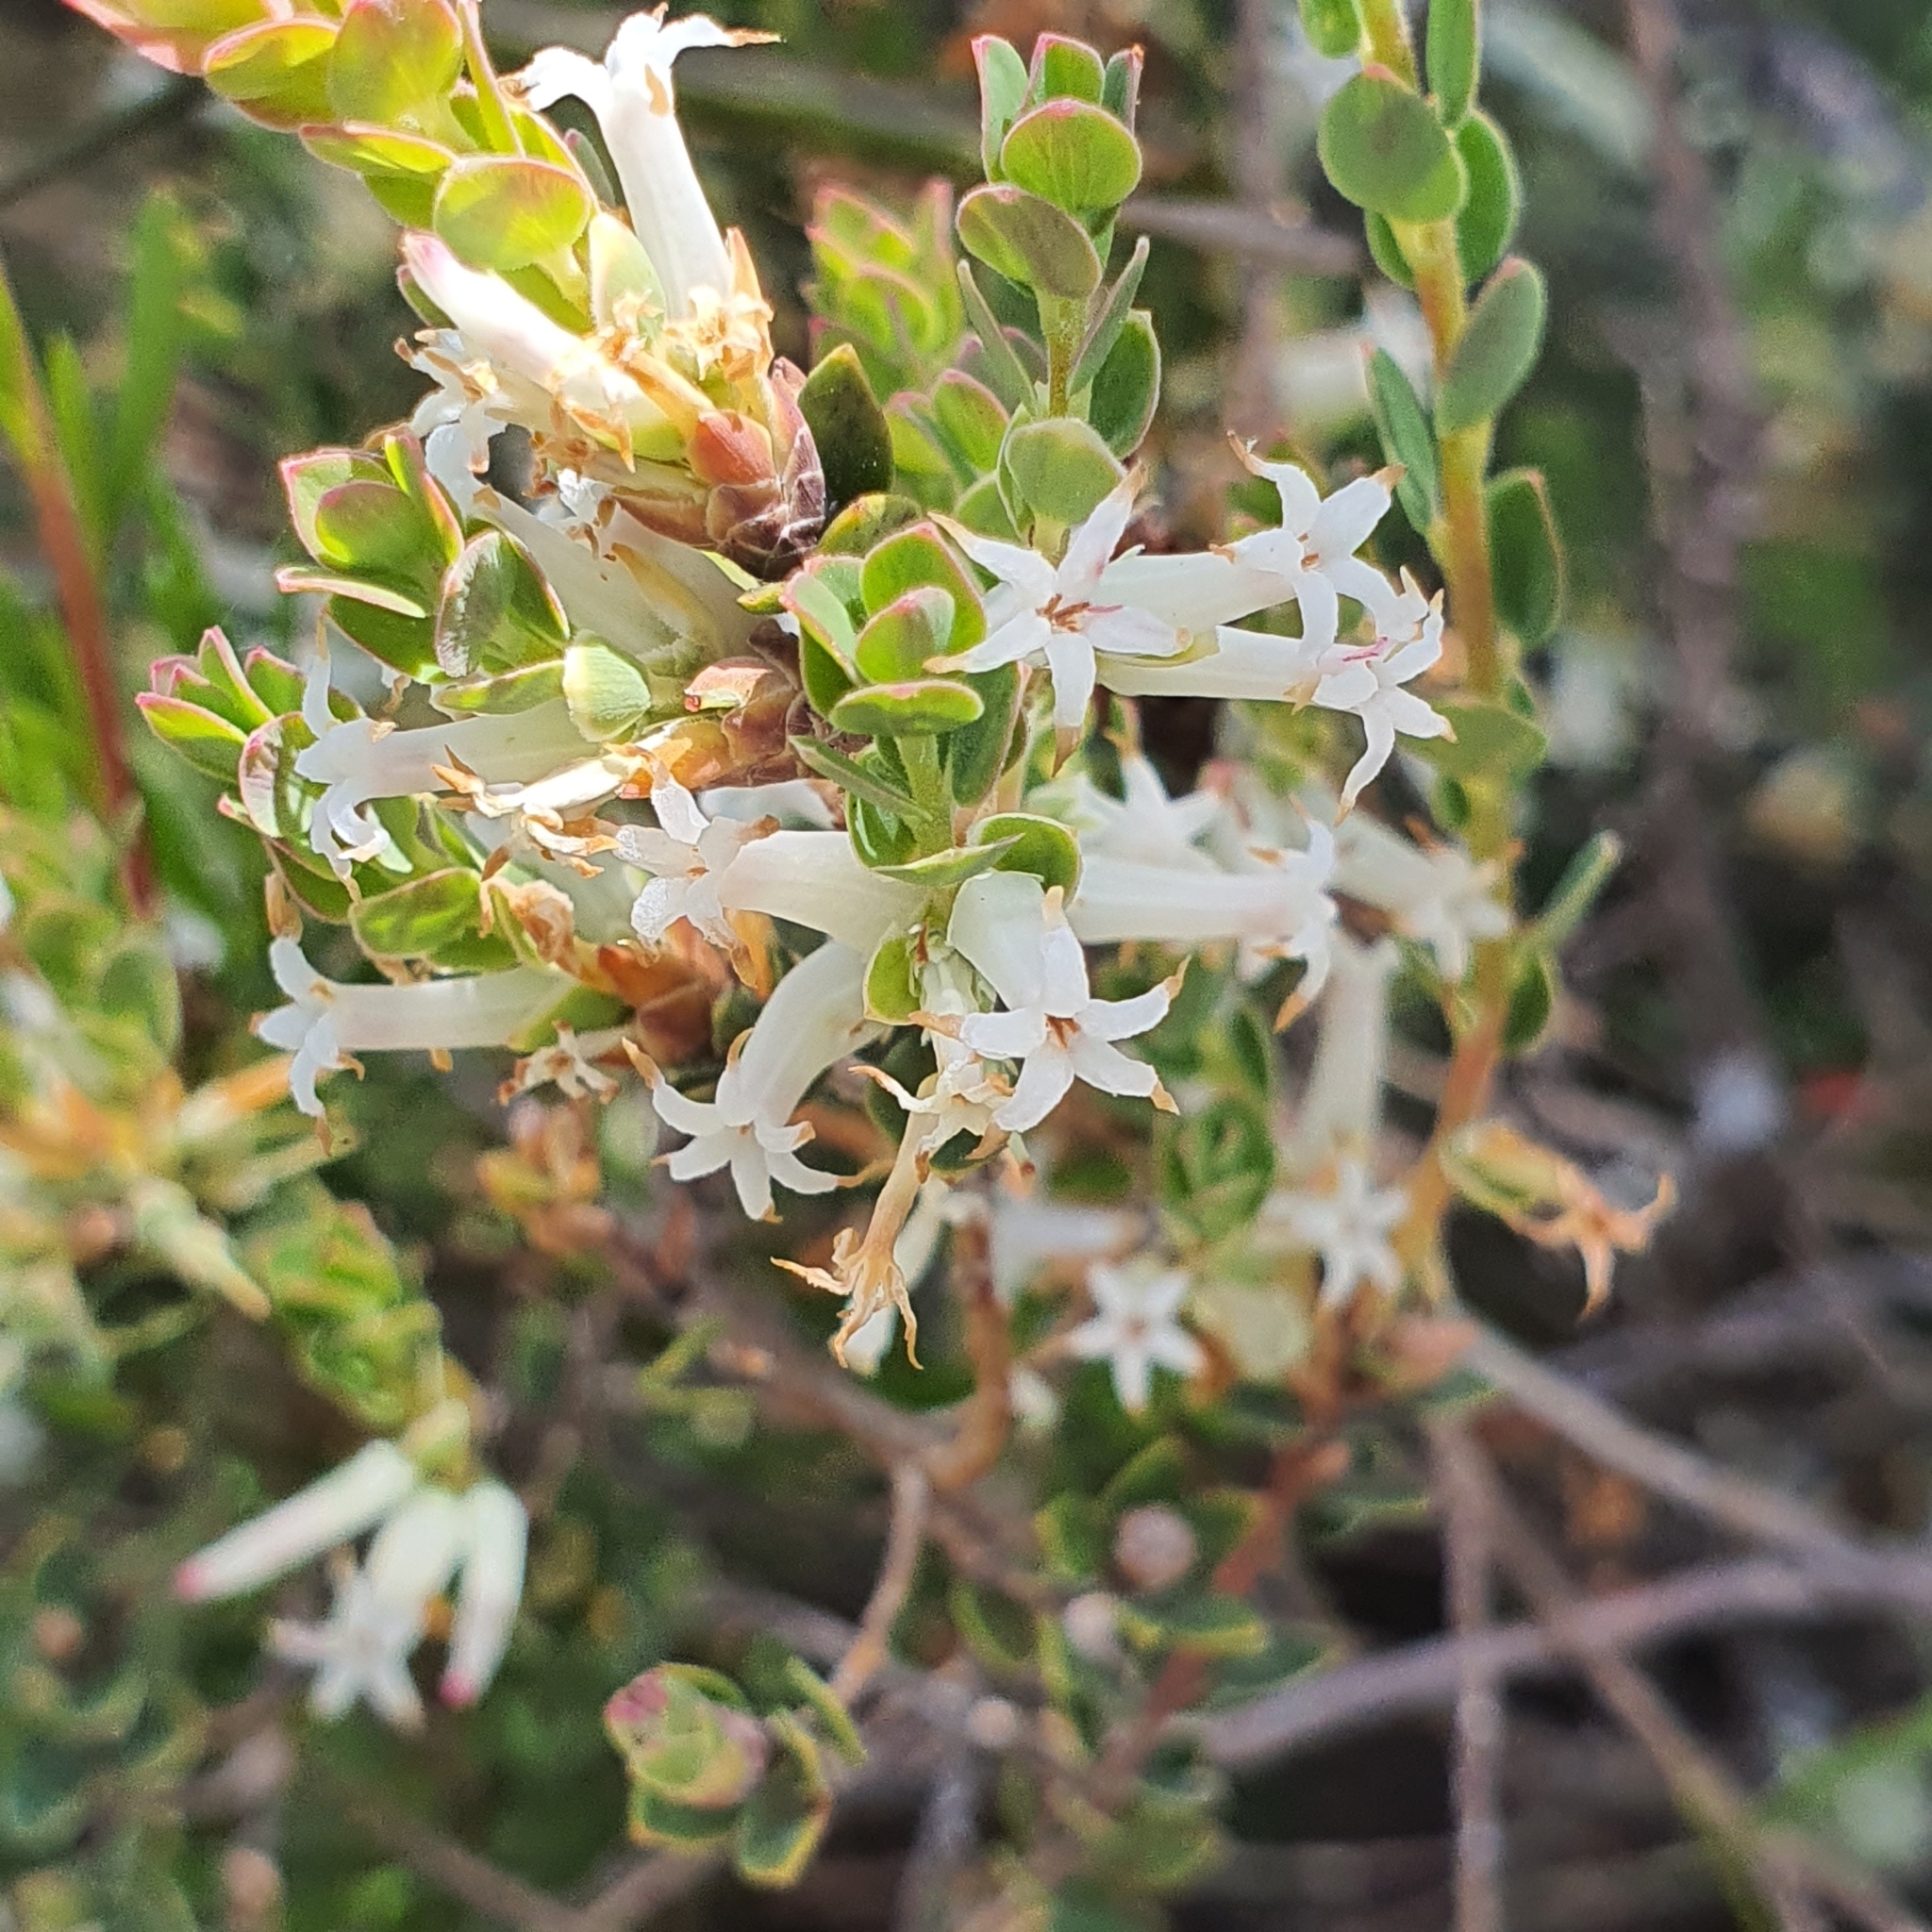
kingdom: Plantae
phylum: Tracheophyta
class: Magnoliopsida
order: Ericales
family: Ericaceae
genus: Brachyloma
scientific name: Brachyloma daphnoides
